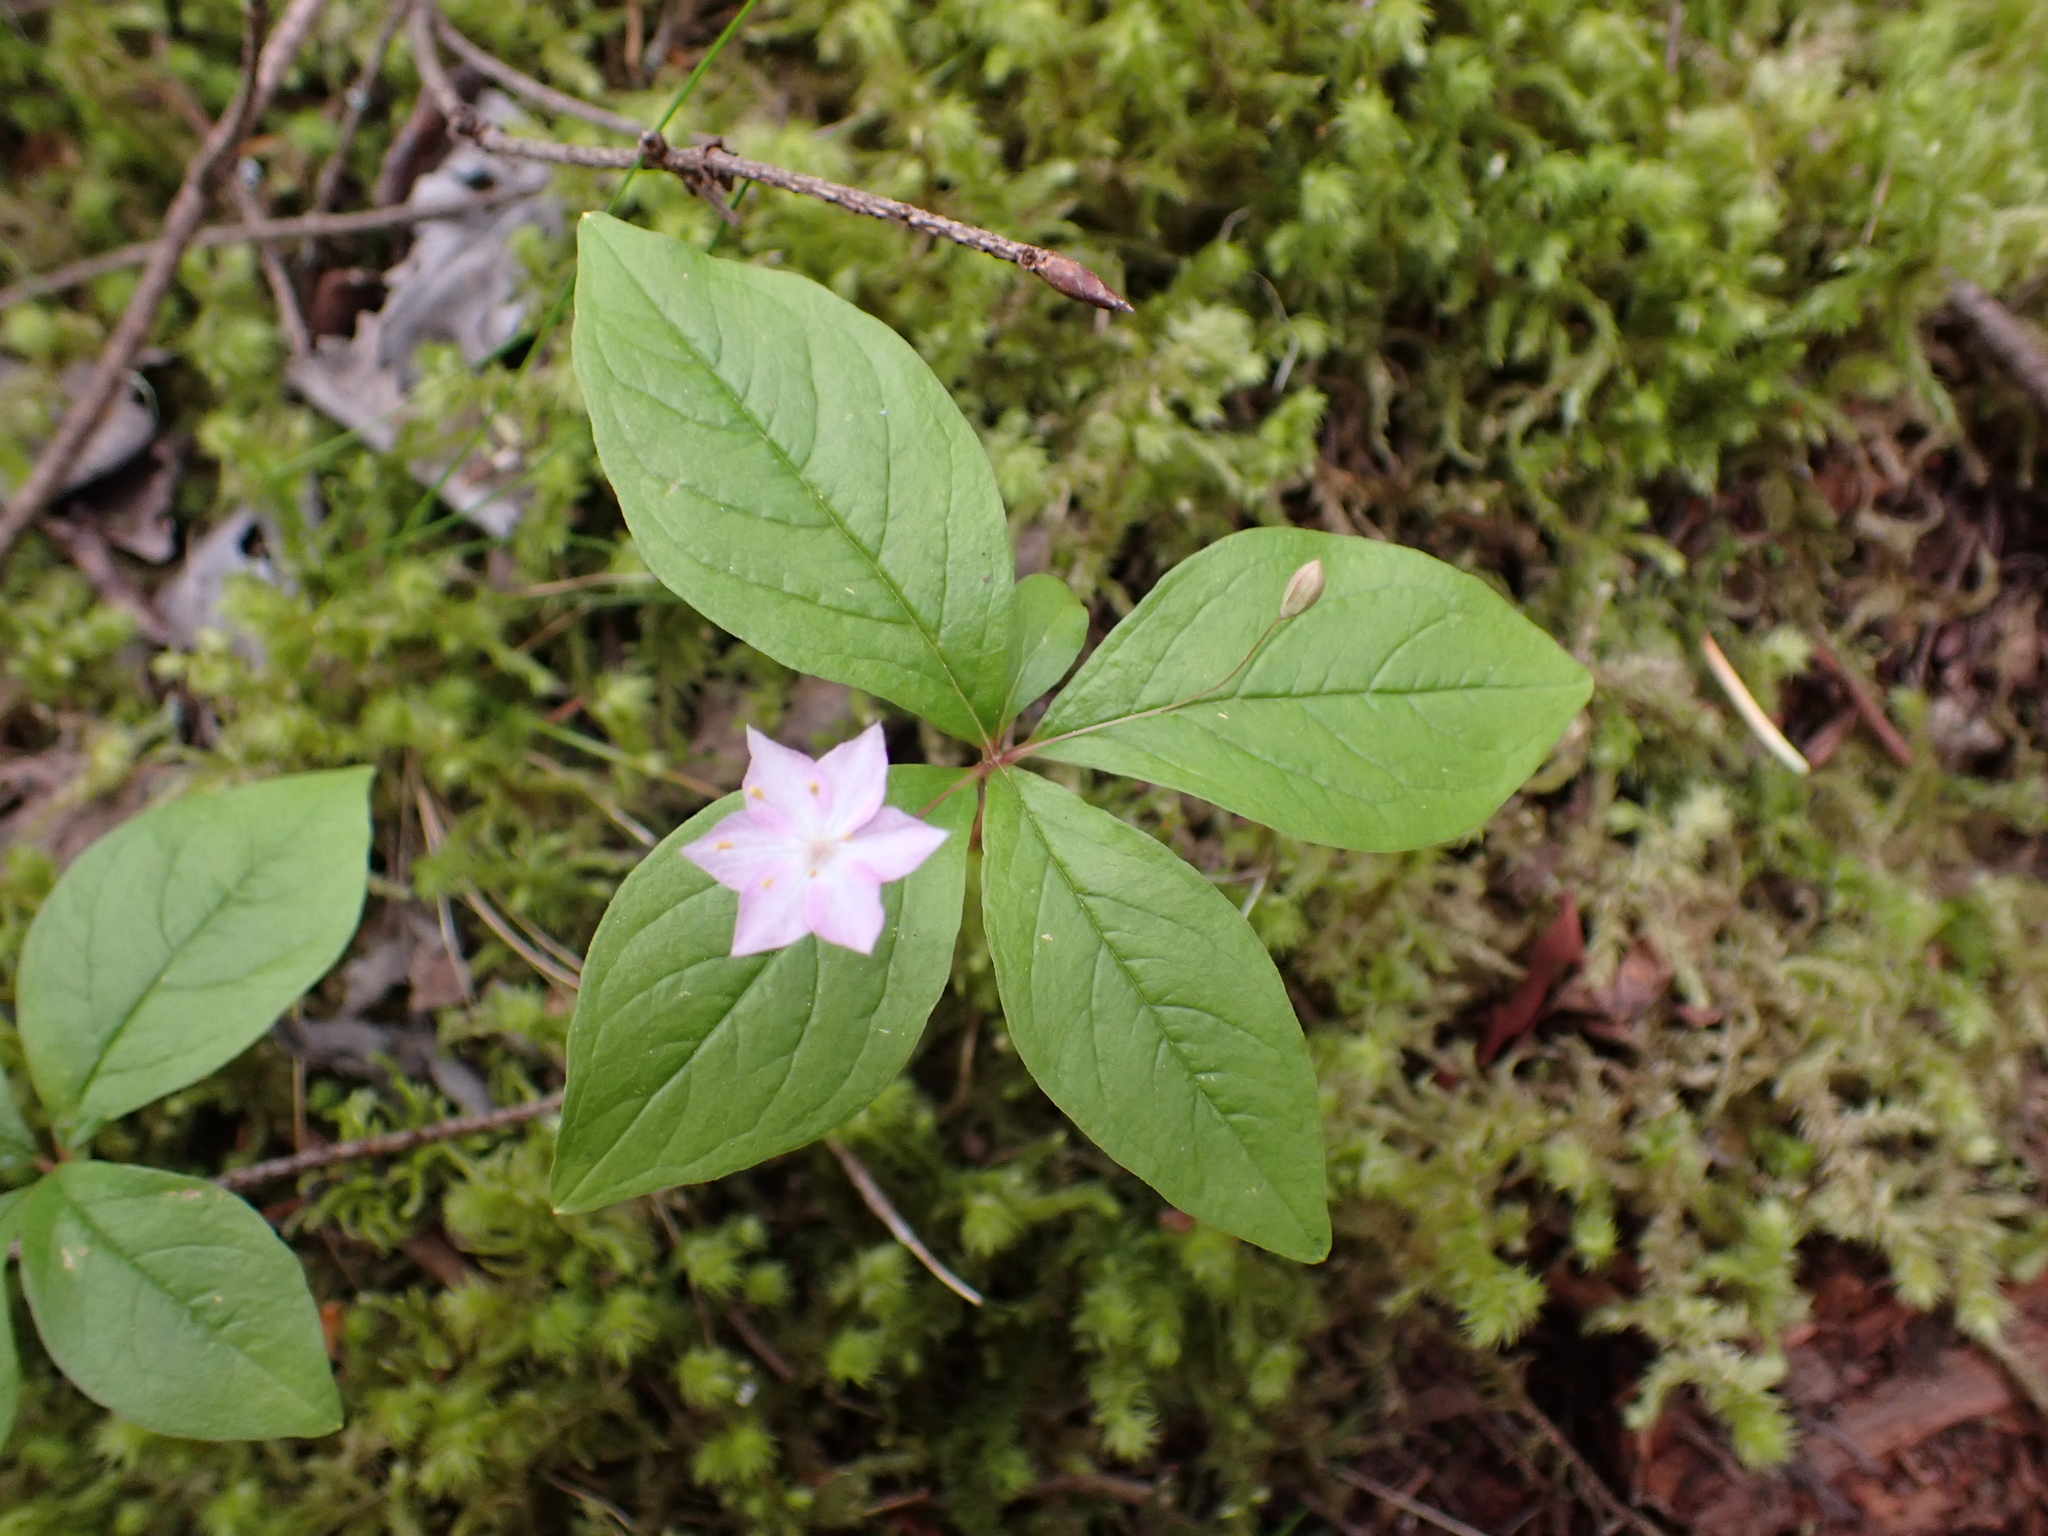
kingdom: Plantae
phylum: Tracheophyta
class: Magnoliopsida
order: Ericales
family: Primulaceae
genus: Lysimachia
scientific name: Lysimachia latifolia
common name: Pacific starflower
